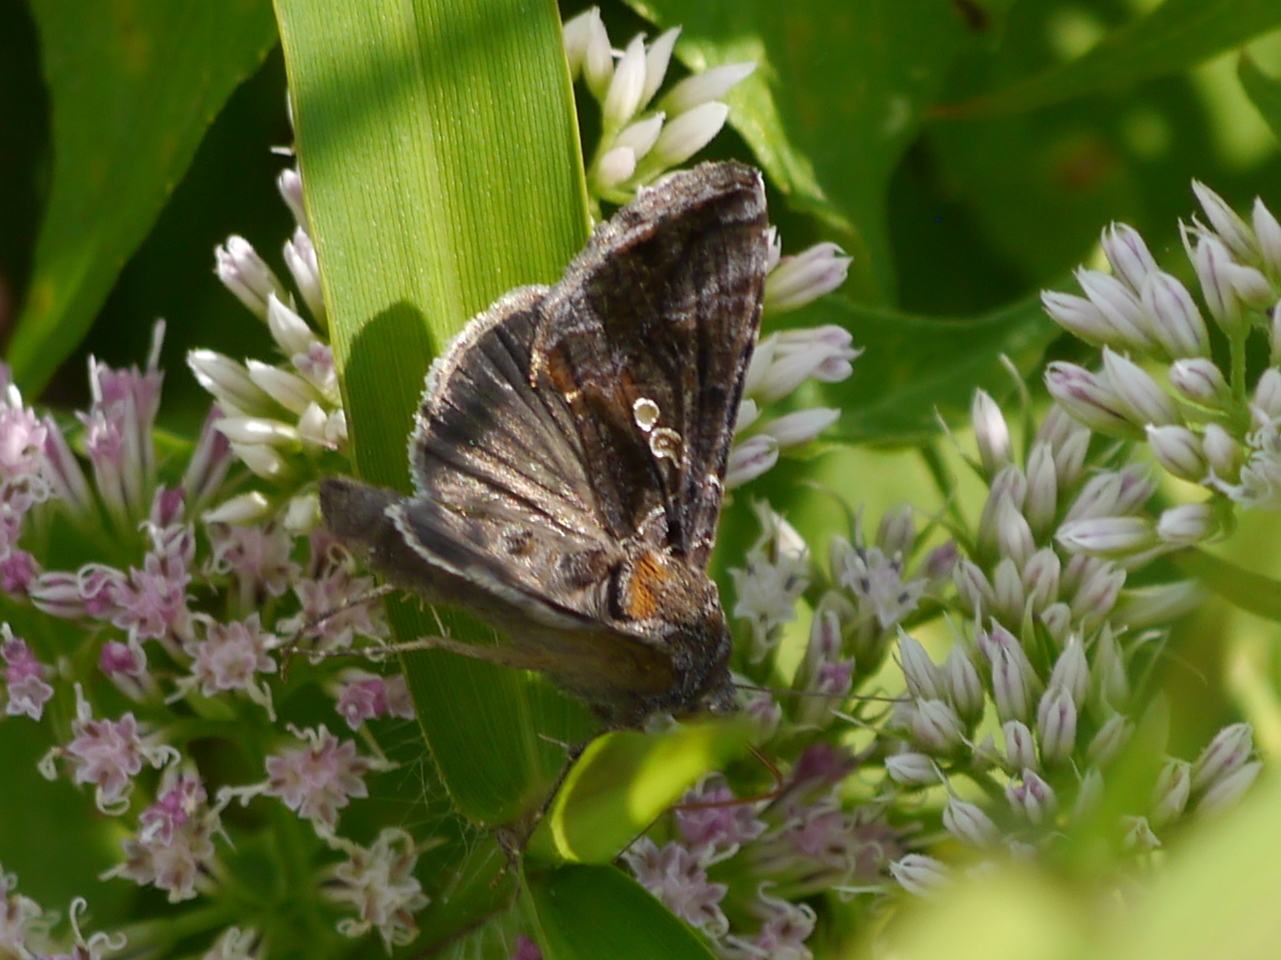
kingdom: Animalia
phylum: Arthropoda
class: Insecta
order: Lepidoptera
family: Noctuidae
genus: Chrysodeixis
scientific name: Chrysodeixis includens
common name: Cutworm moth
